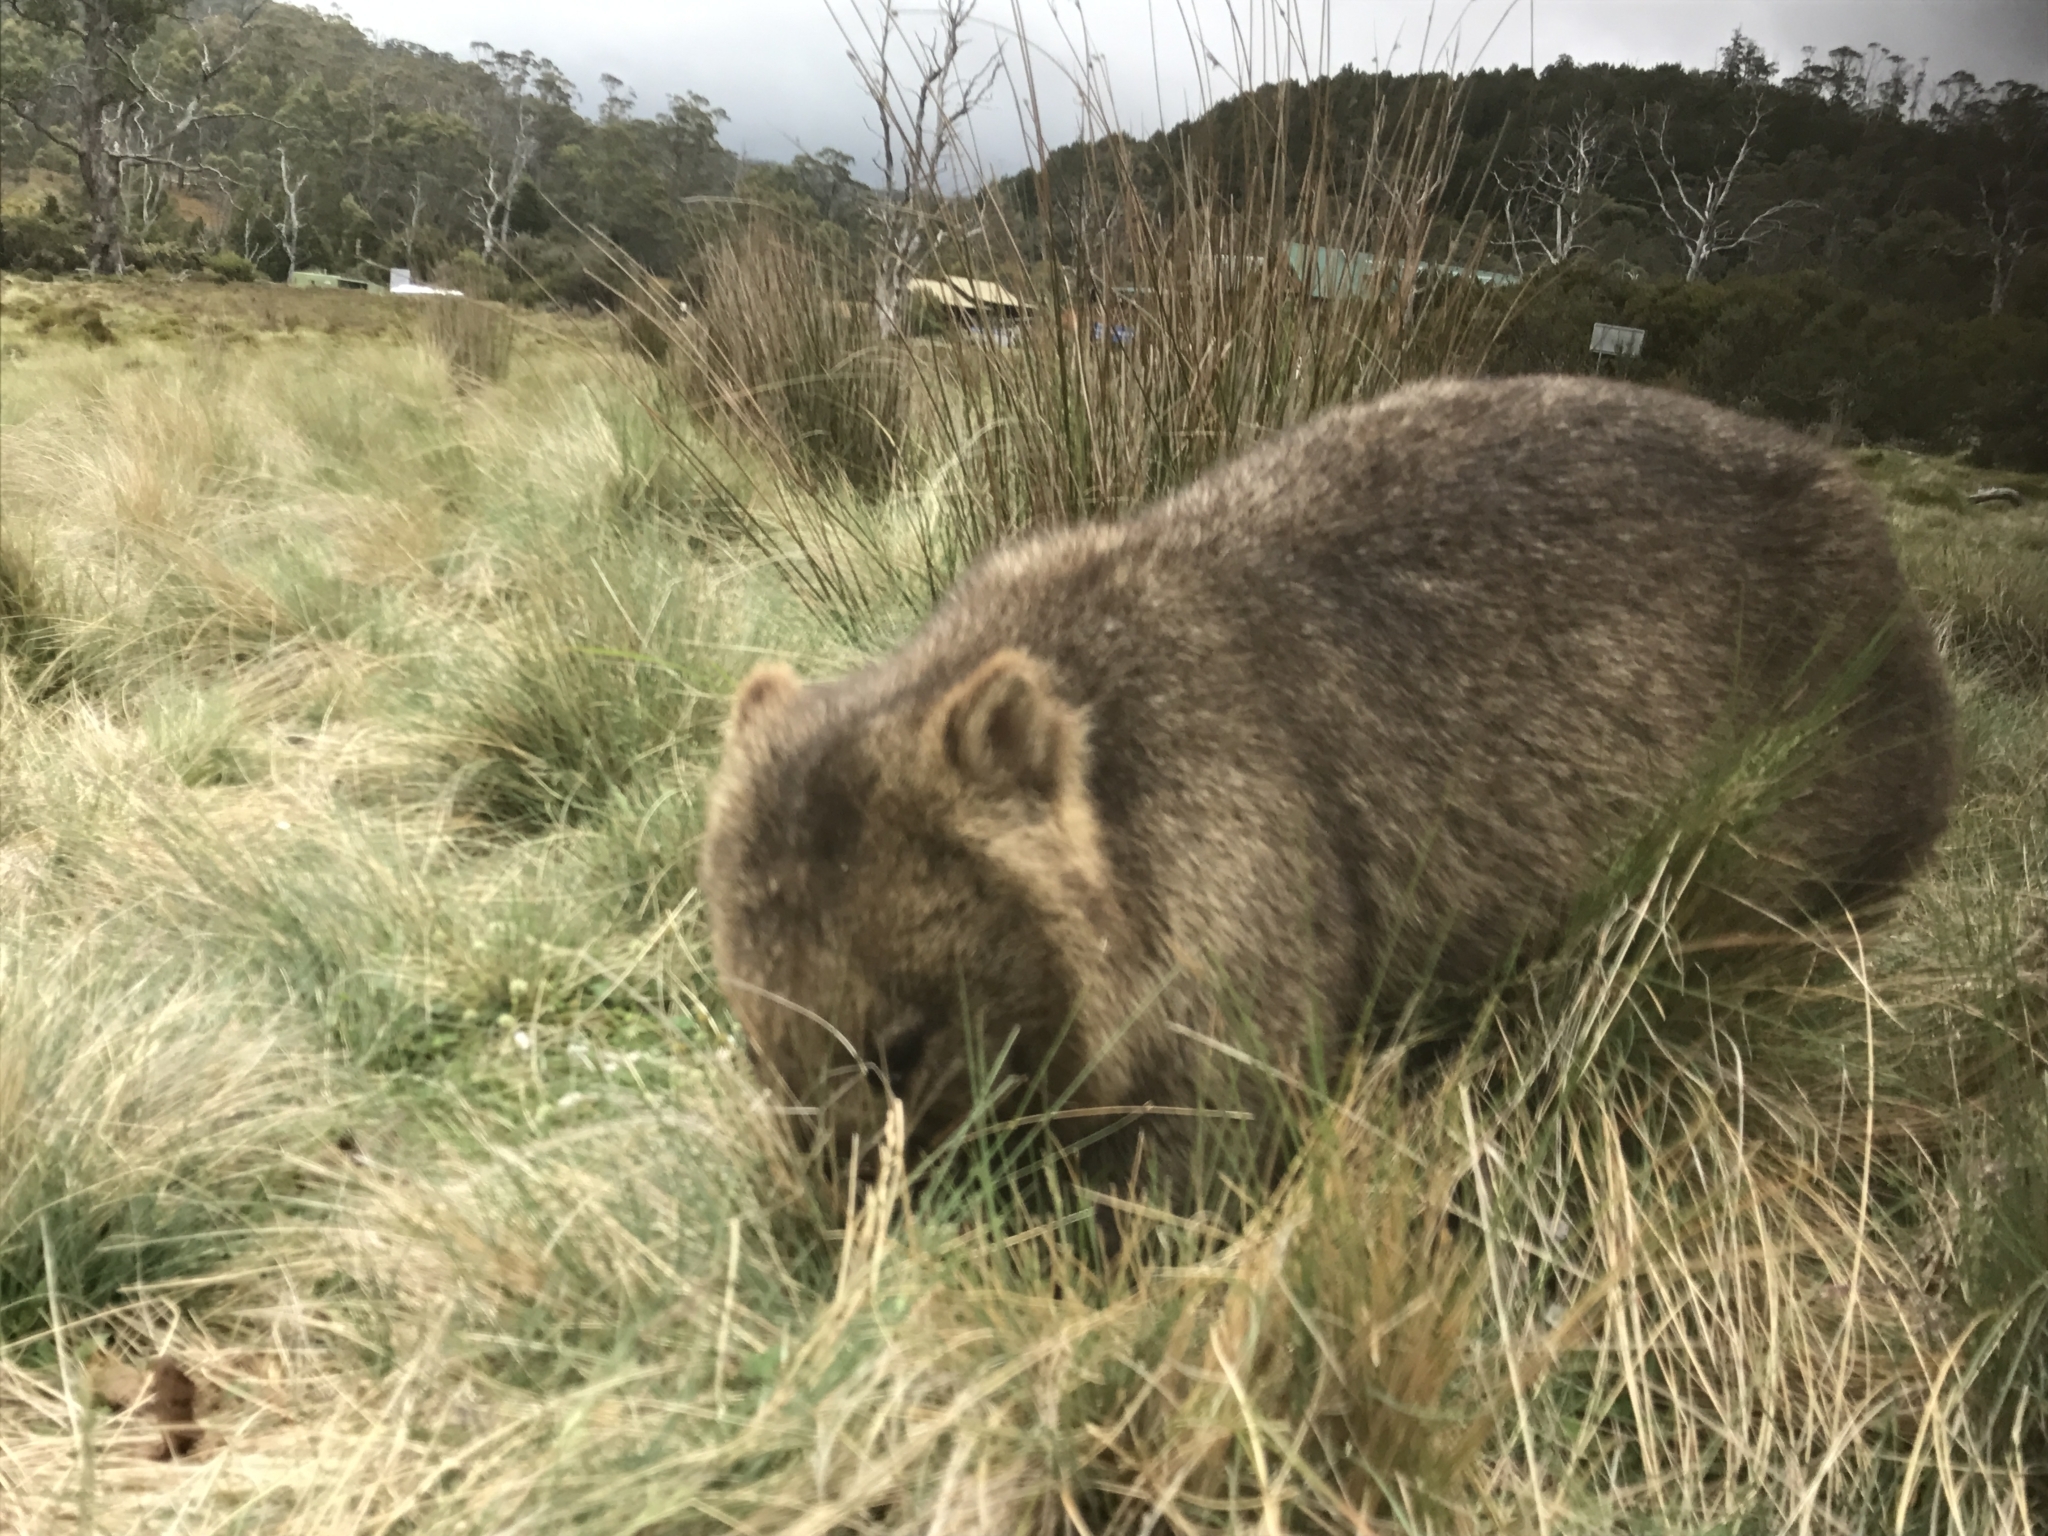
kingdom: Animalia
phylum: Chordata
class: Mammalia
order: Diprotodontia
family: Vombatidae
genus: Vombatus
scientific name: Vombatus ursinus
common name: Common wombat
